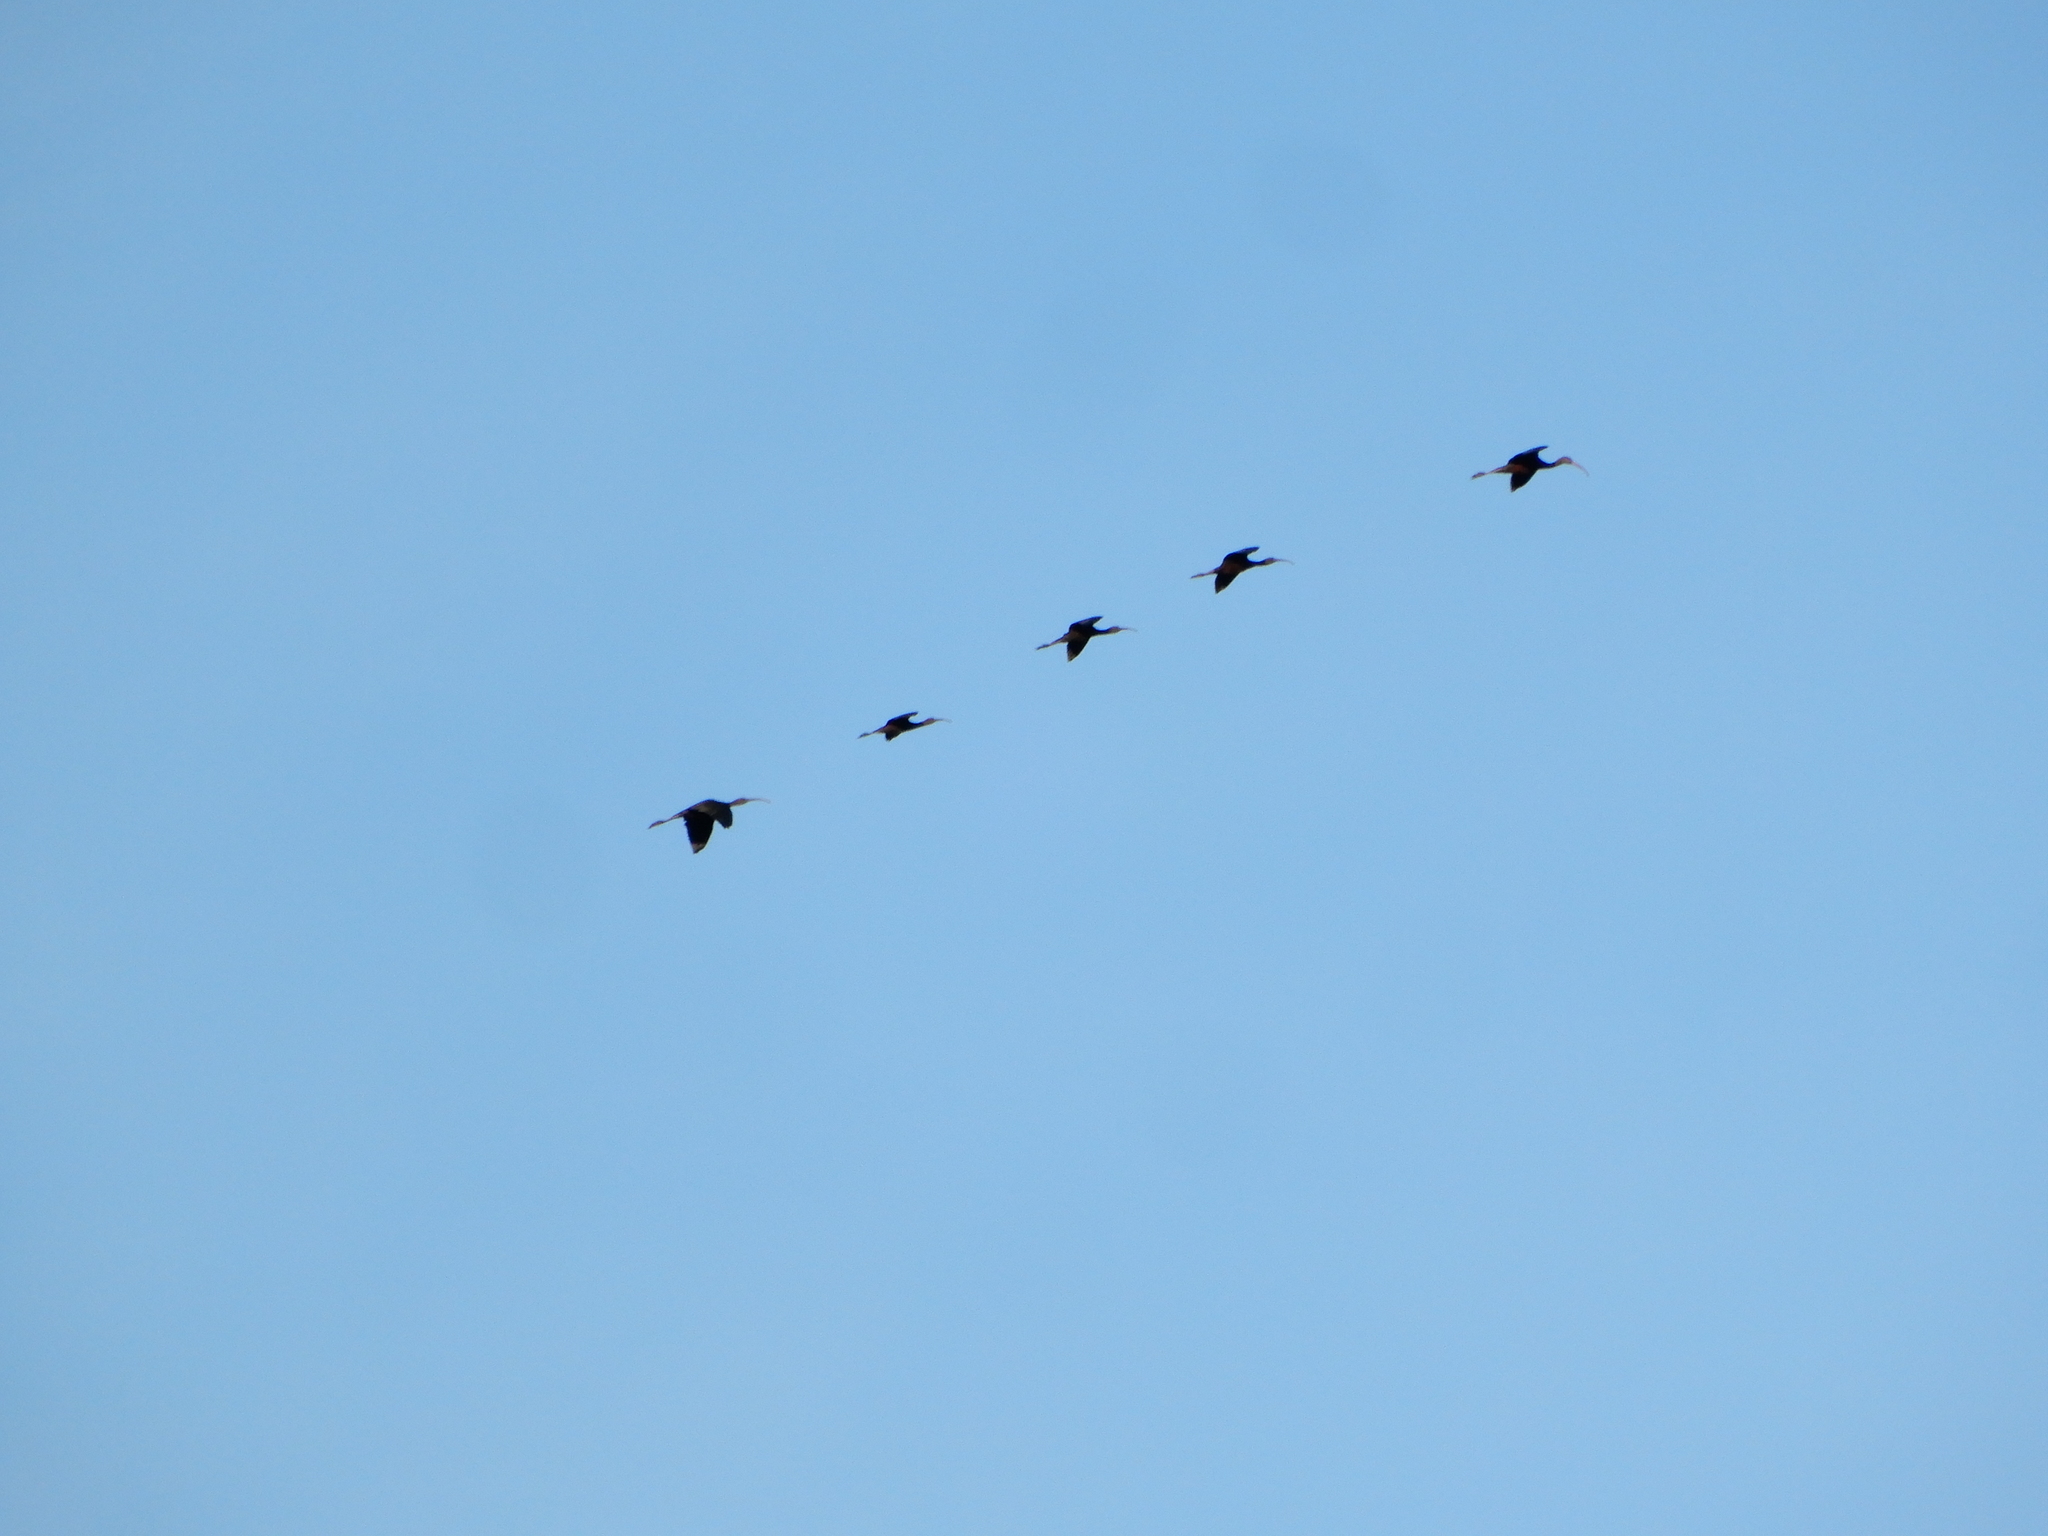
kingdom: Animalia
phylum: Chordata
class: Aves
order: Pelecaniformes
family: Threskiornithidae
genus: Plegadis
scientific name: Plegadis falcinellus
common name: Glossy ibis
